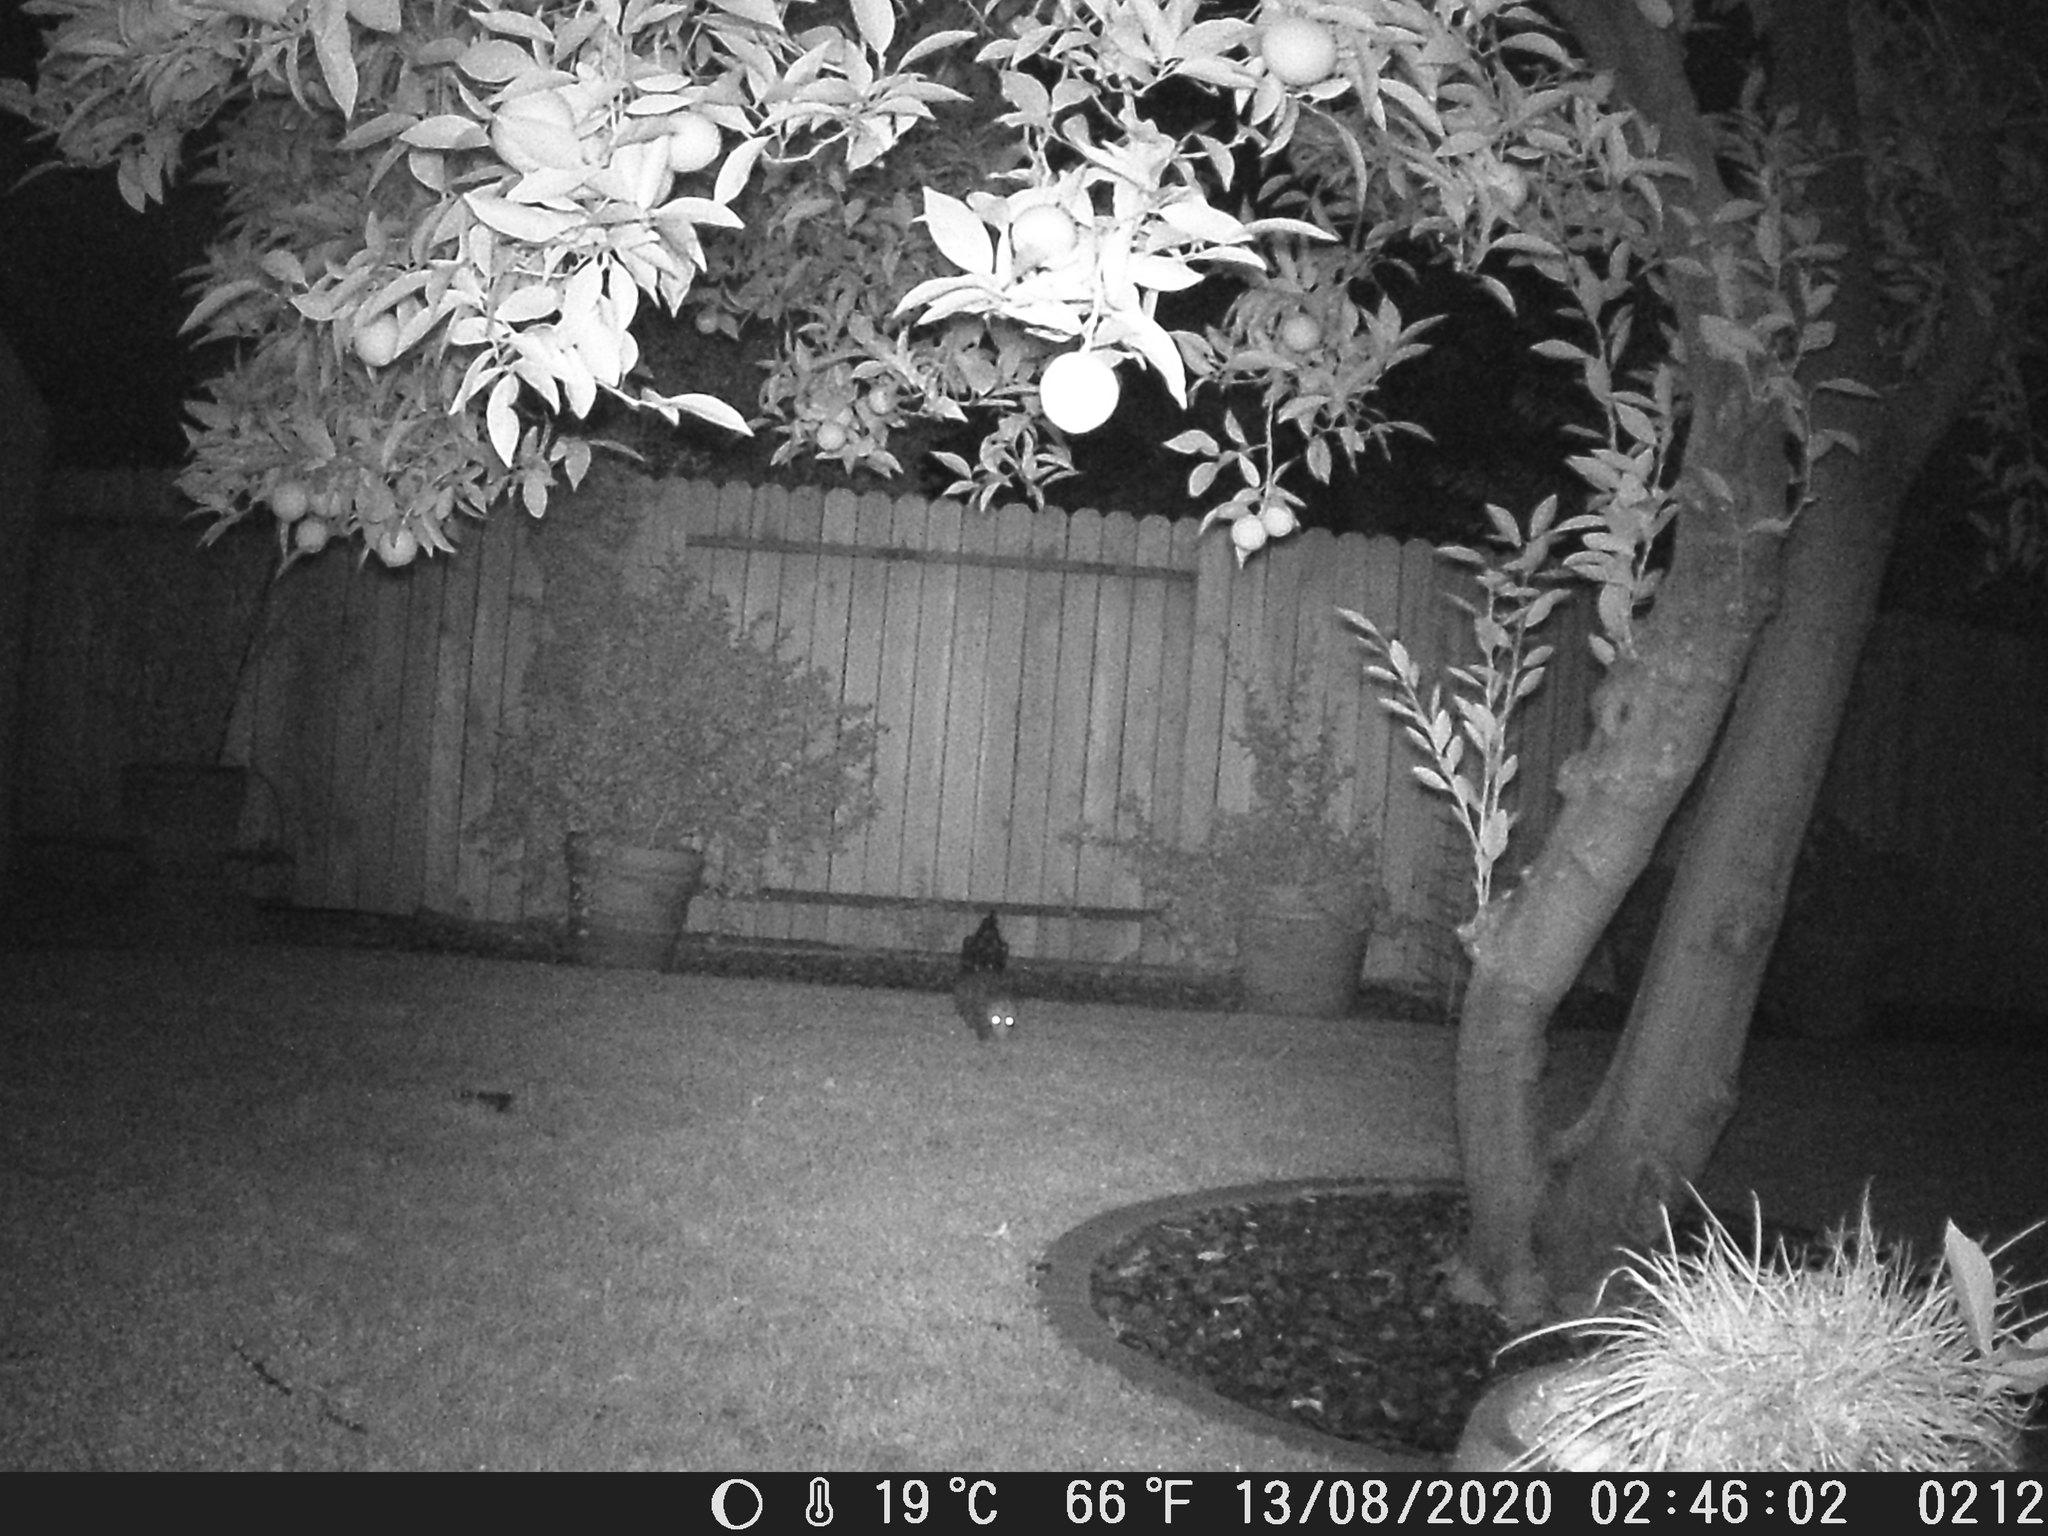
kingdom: Animalia
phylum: Chordata
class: Mammalia
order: Didelphimorphia
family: Didelphidae
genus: Didelphis
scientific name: Didelphis virginiana
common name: Virginia opossum
